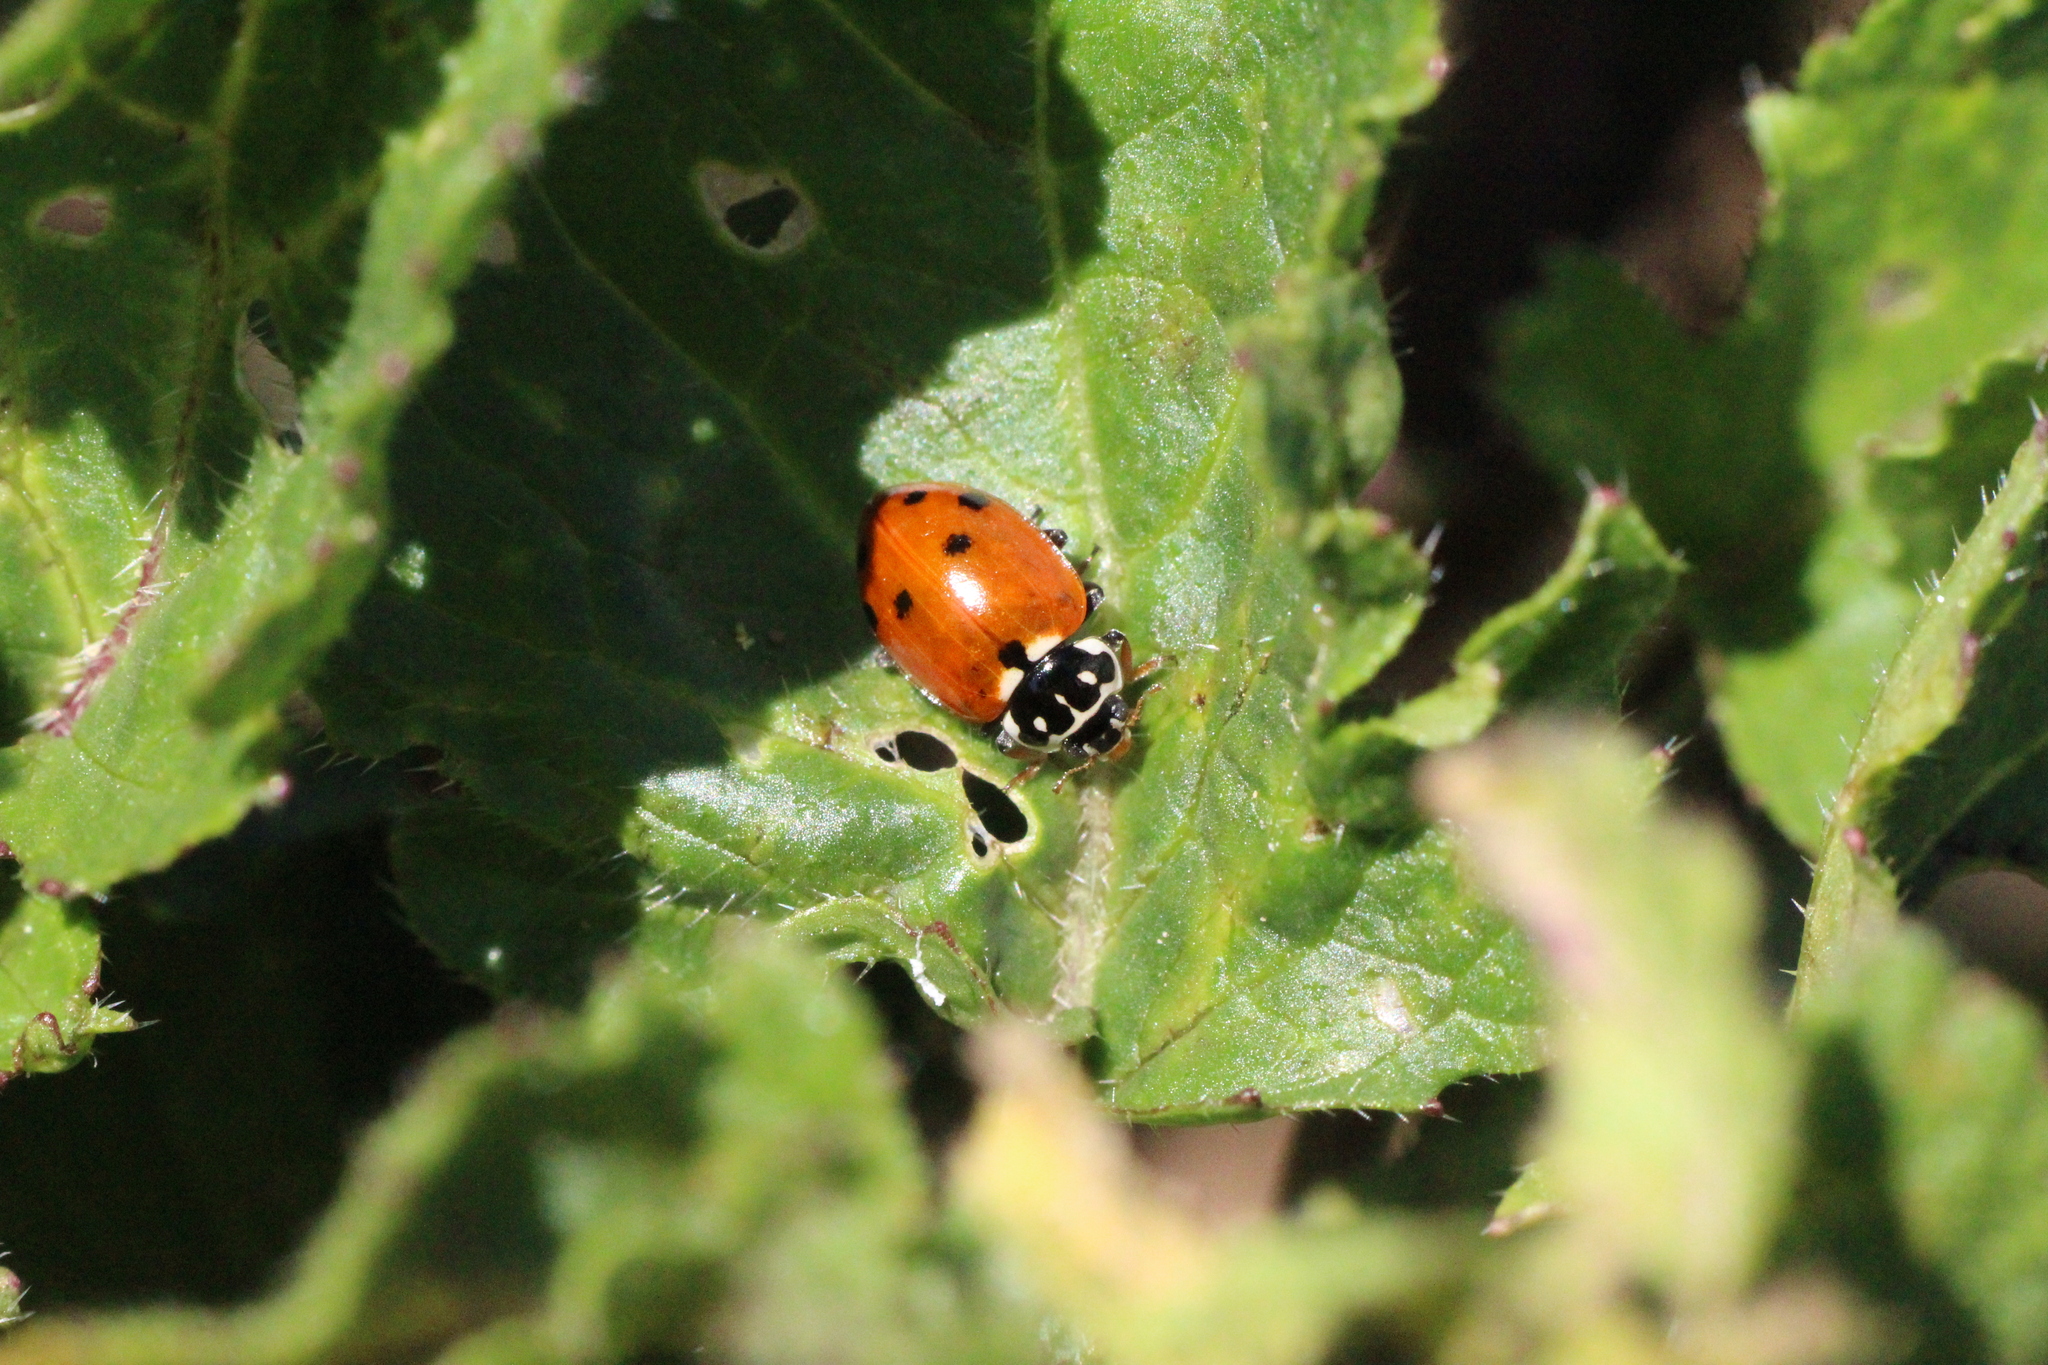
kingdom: Animalia
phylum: Arthropoda
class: Insecta
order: Coleoptera
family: Coccinellidae
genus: Hippodamia
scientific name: Hippodamia variegata
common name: Ladybird beetle
